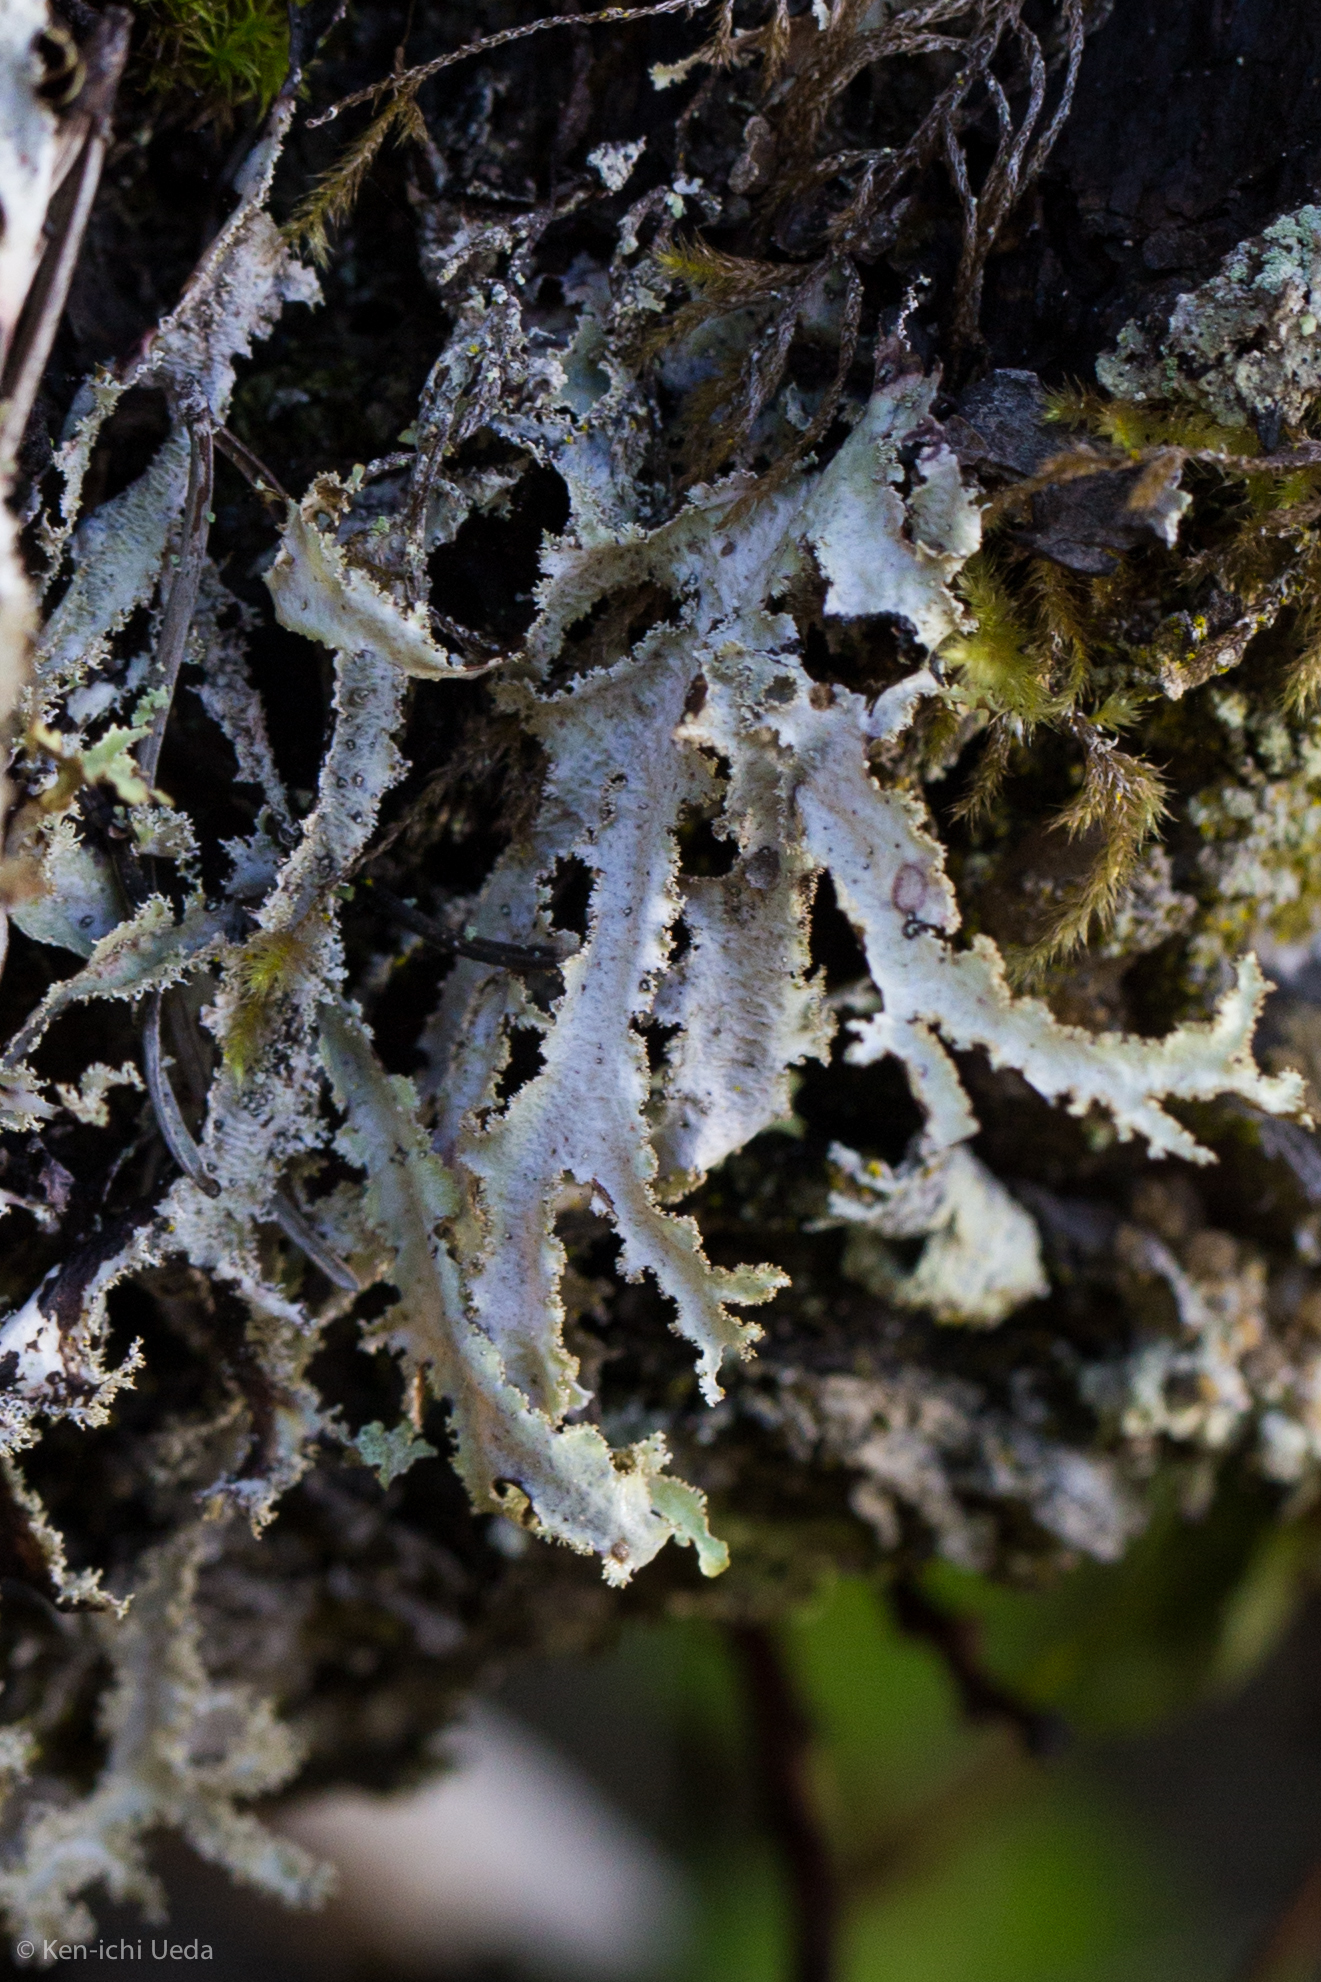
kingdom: Fungi
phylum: Ascomycota
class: Lecanoromycetes
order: Lecanorales
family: Parmeliaceae
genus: Platismatia
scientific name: Platismatia herrei
